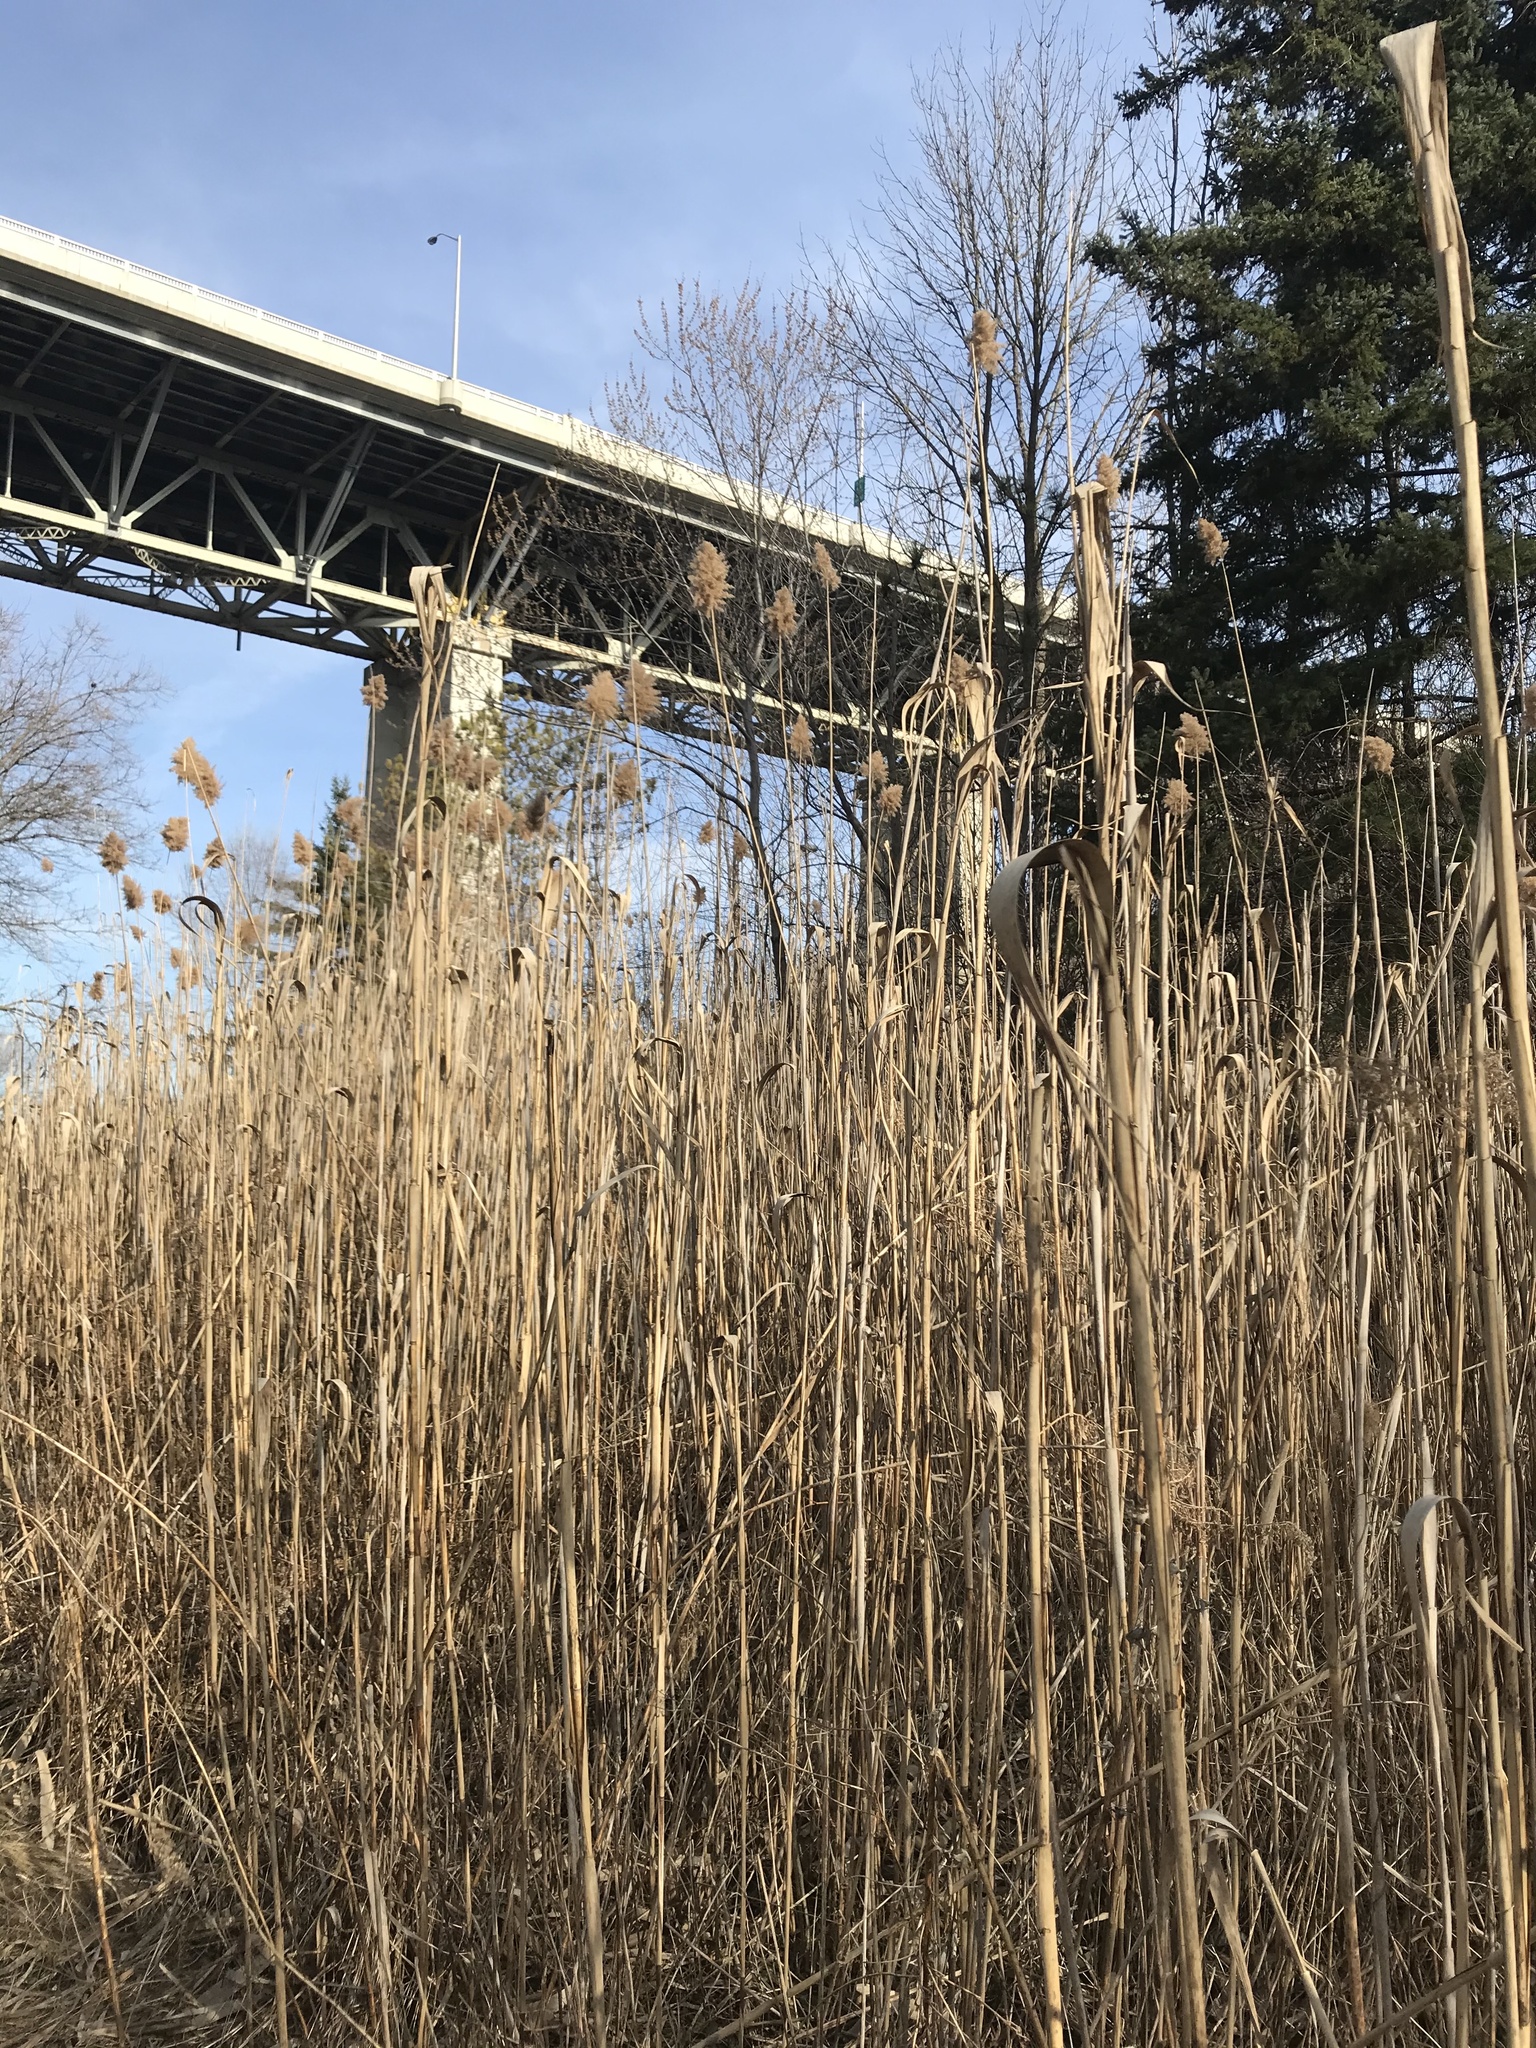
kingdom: Plantae
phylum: Tracheophyta
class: Liliopsida
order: Poales
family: Poaceae
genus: Phragmites
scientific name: Phragmites australis
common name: Common reed
